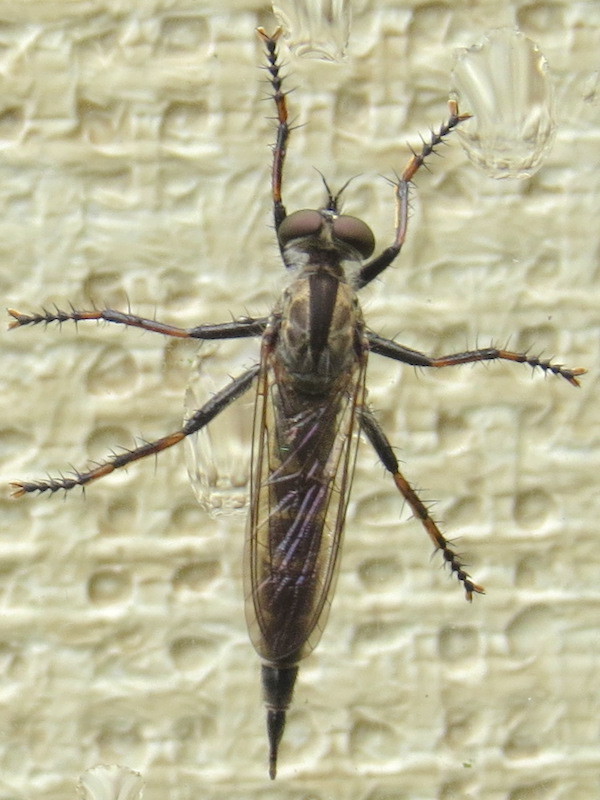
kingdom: Animalia
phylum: Arthropoda
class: Insecta
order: Diptera
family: Asilidae
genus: Machimus
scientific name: Machimus sadyates
